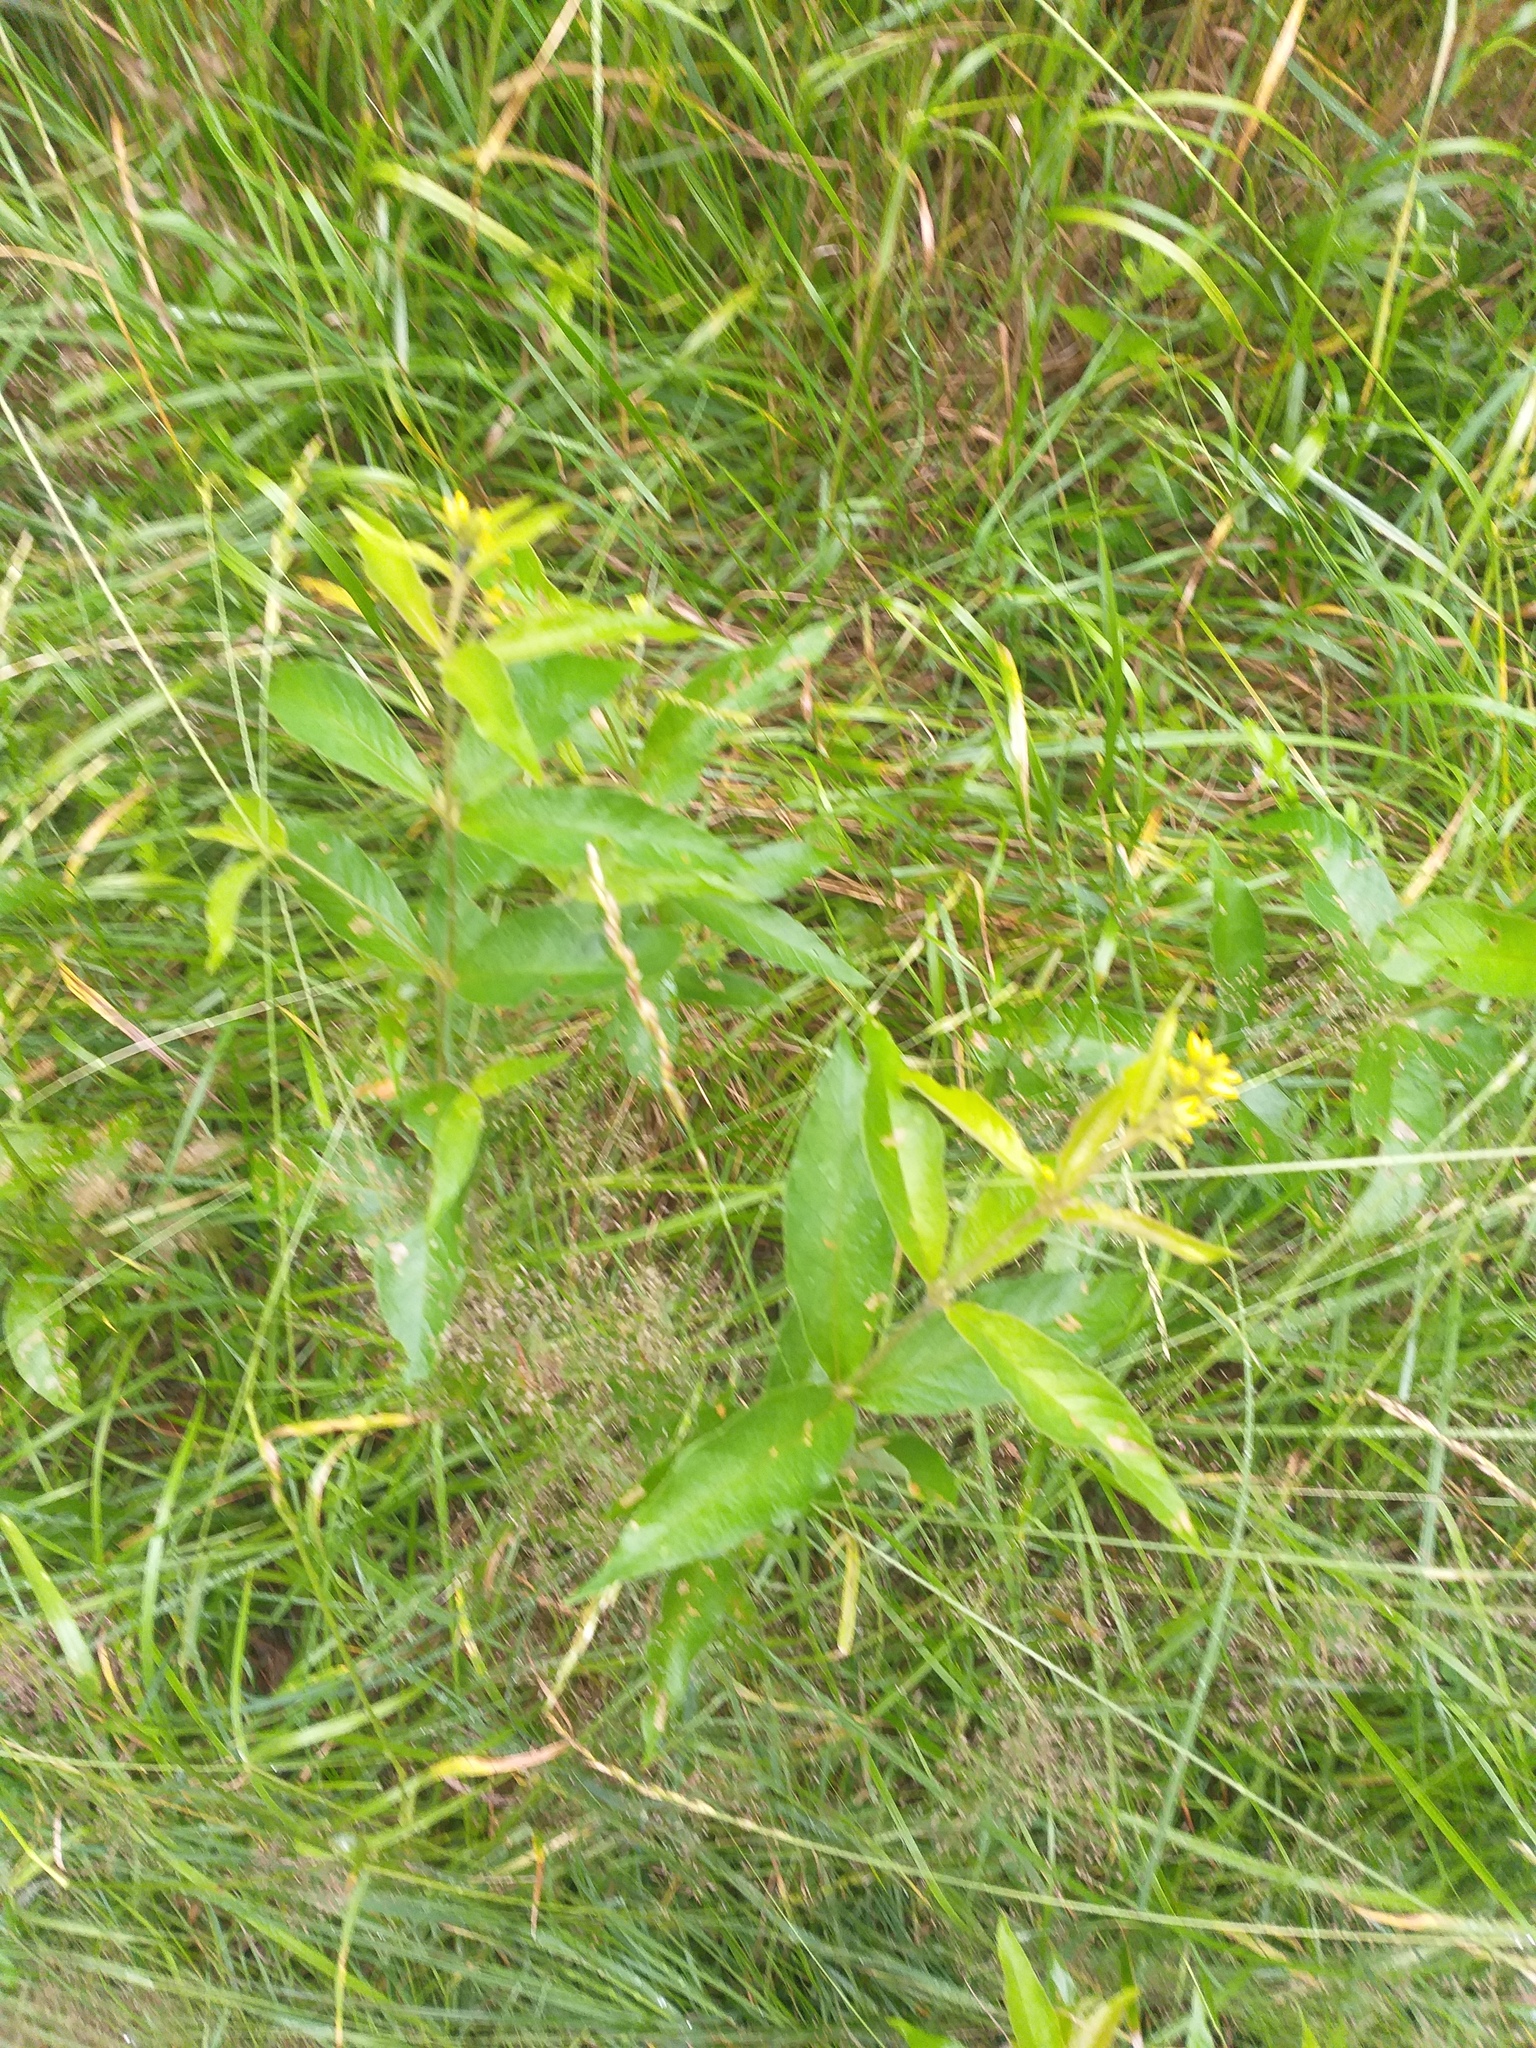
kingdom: Plantae
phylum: Tracheophyta
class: Magnoliopsida
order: Ericales
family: Primulaceae
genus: Lysimachia
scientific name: Lysimachia vulgaris
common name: Yellow loosestrife
